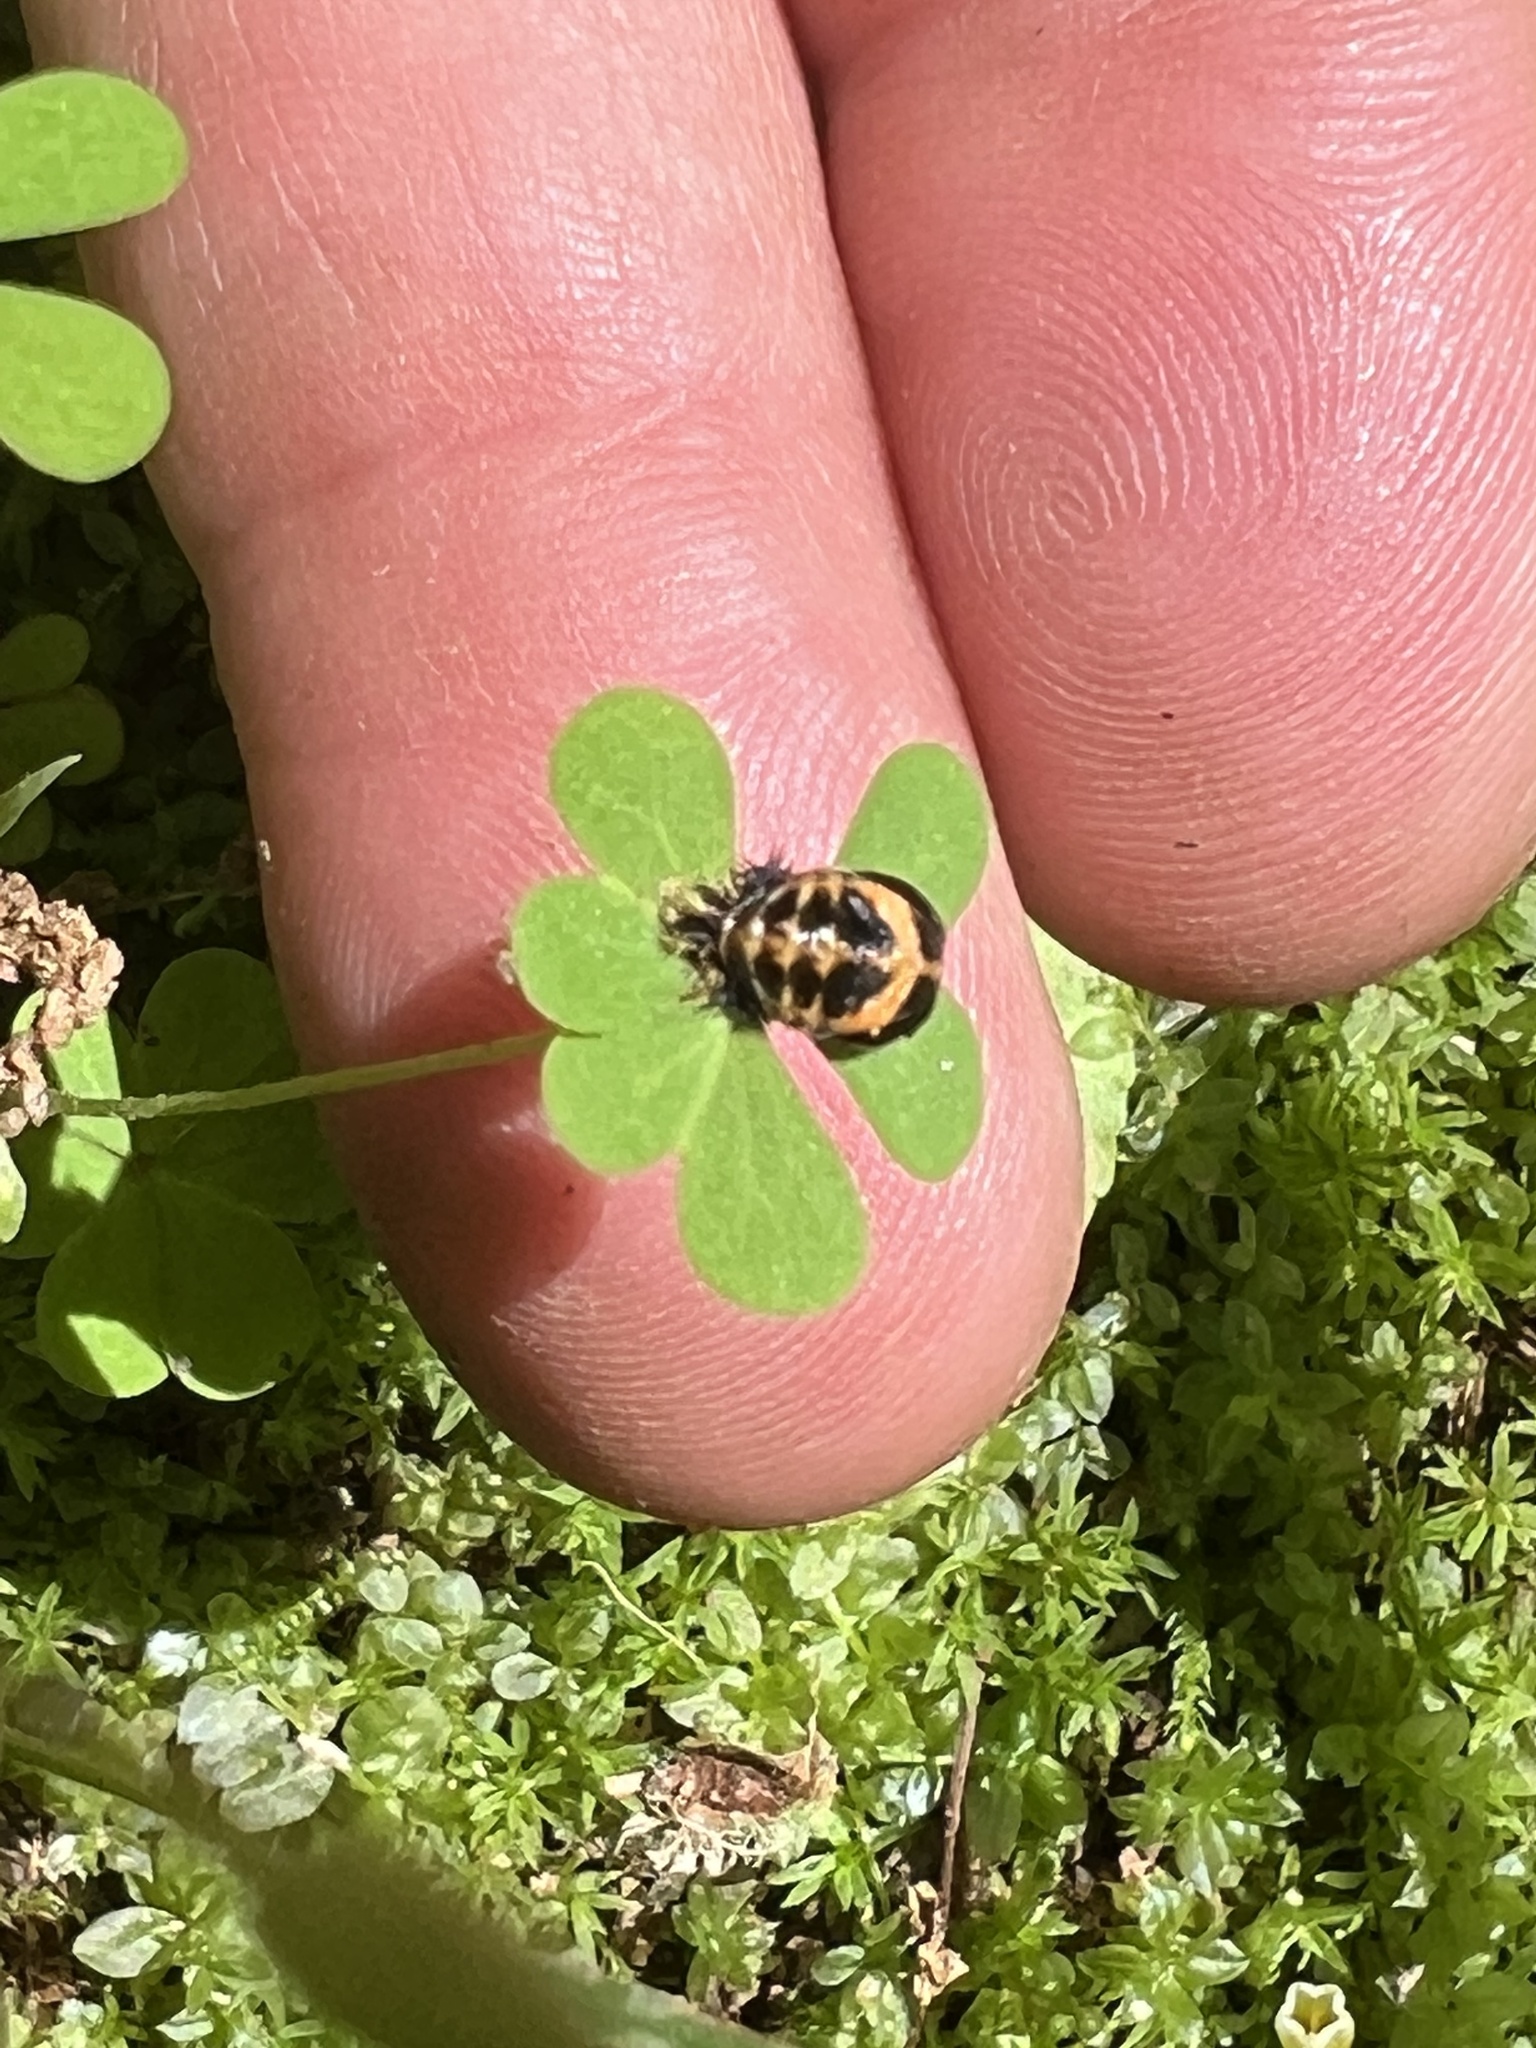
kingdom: Animalia
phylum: Arthropoda
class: Insecta
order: Coleoptera
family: Coccinellidae
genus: Harmonia
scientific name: Harmonia axyridis
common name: Harlequin ladybird
